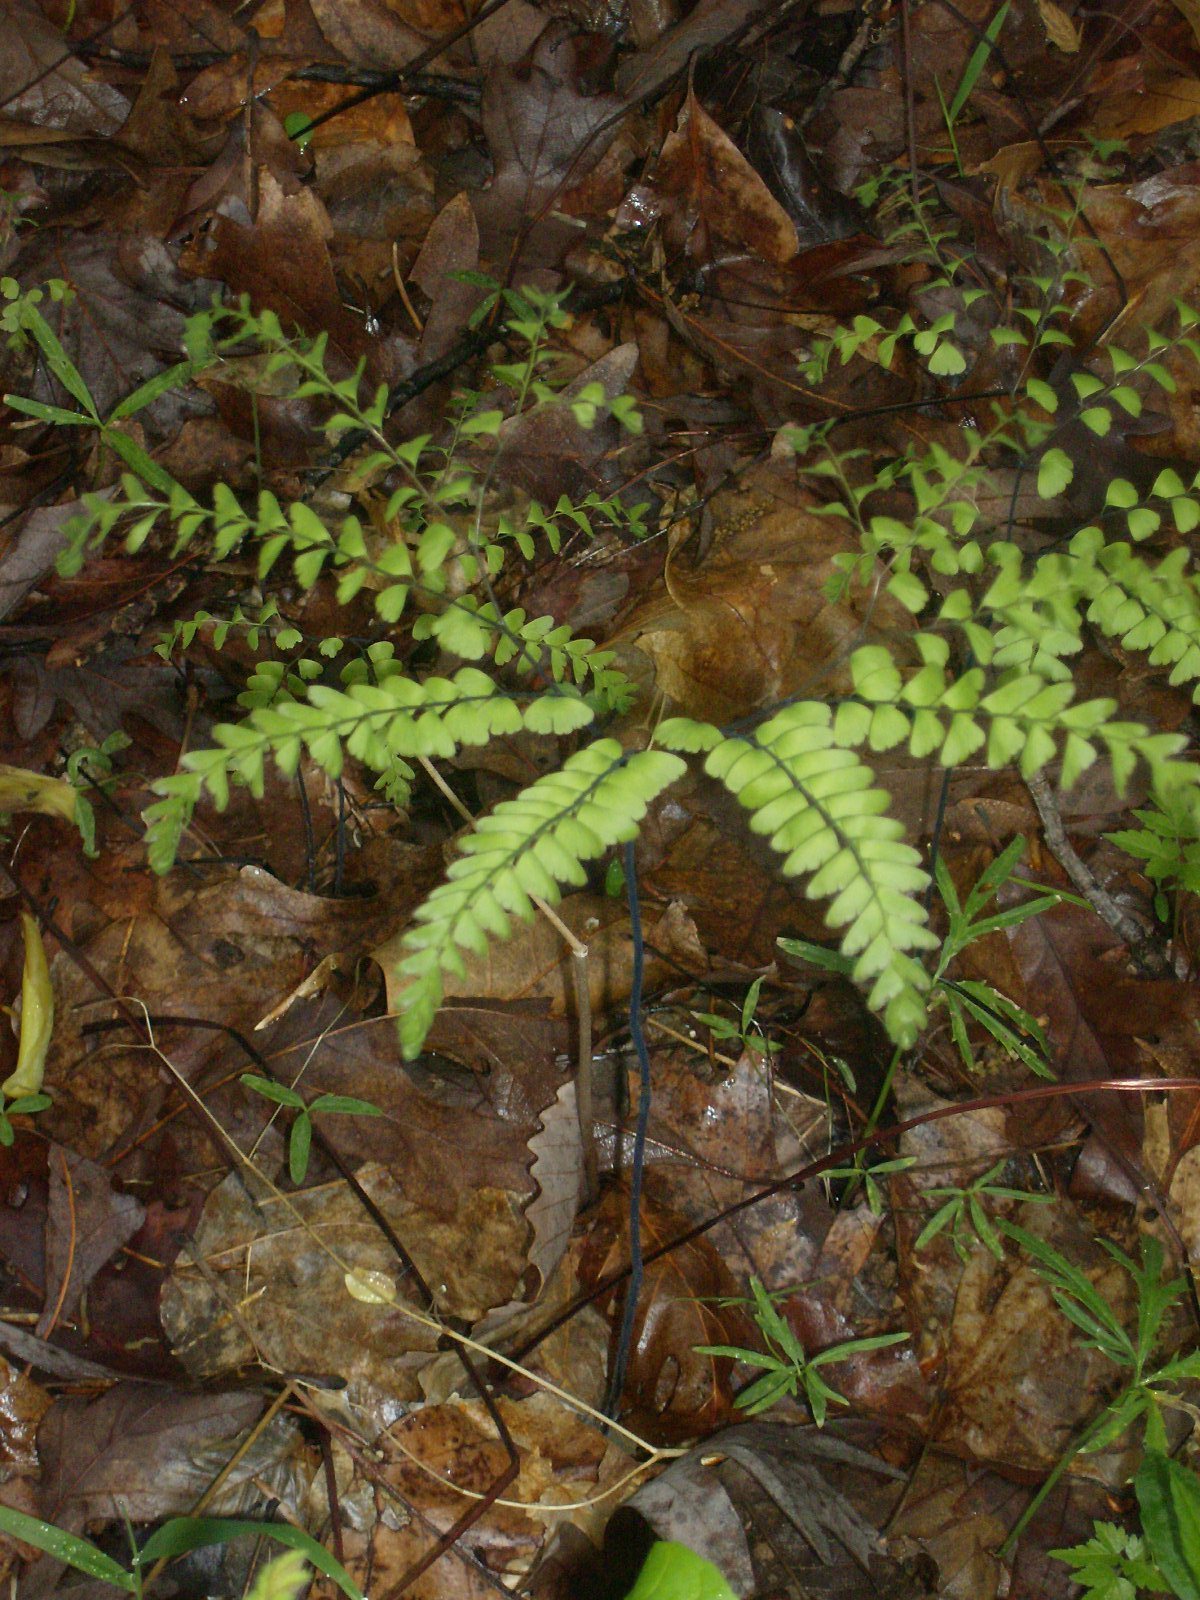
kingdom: Plantae
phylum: Tracheophyta
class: Polypodiopsida
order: Polypodiales
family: Pteridaceae
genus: Adiantum
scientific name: Adiantum pedatum
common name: Five-finger fern
